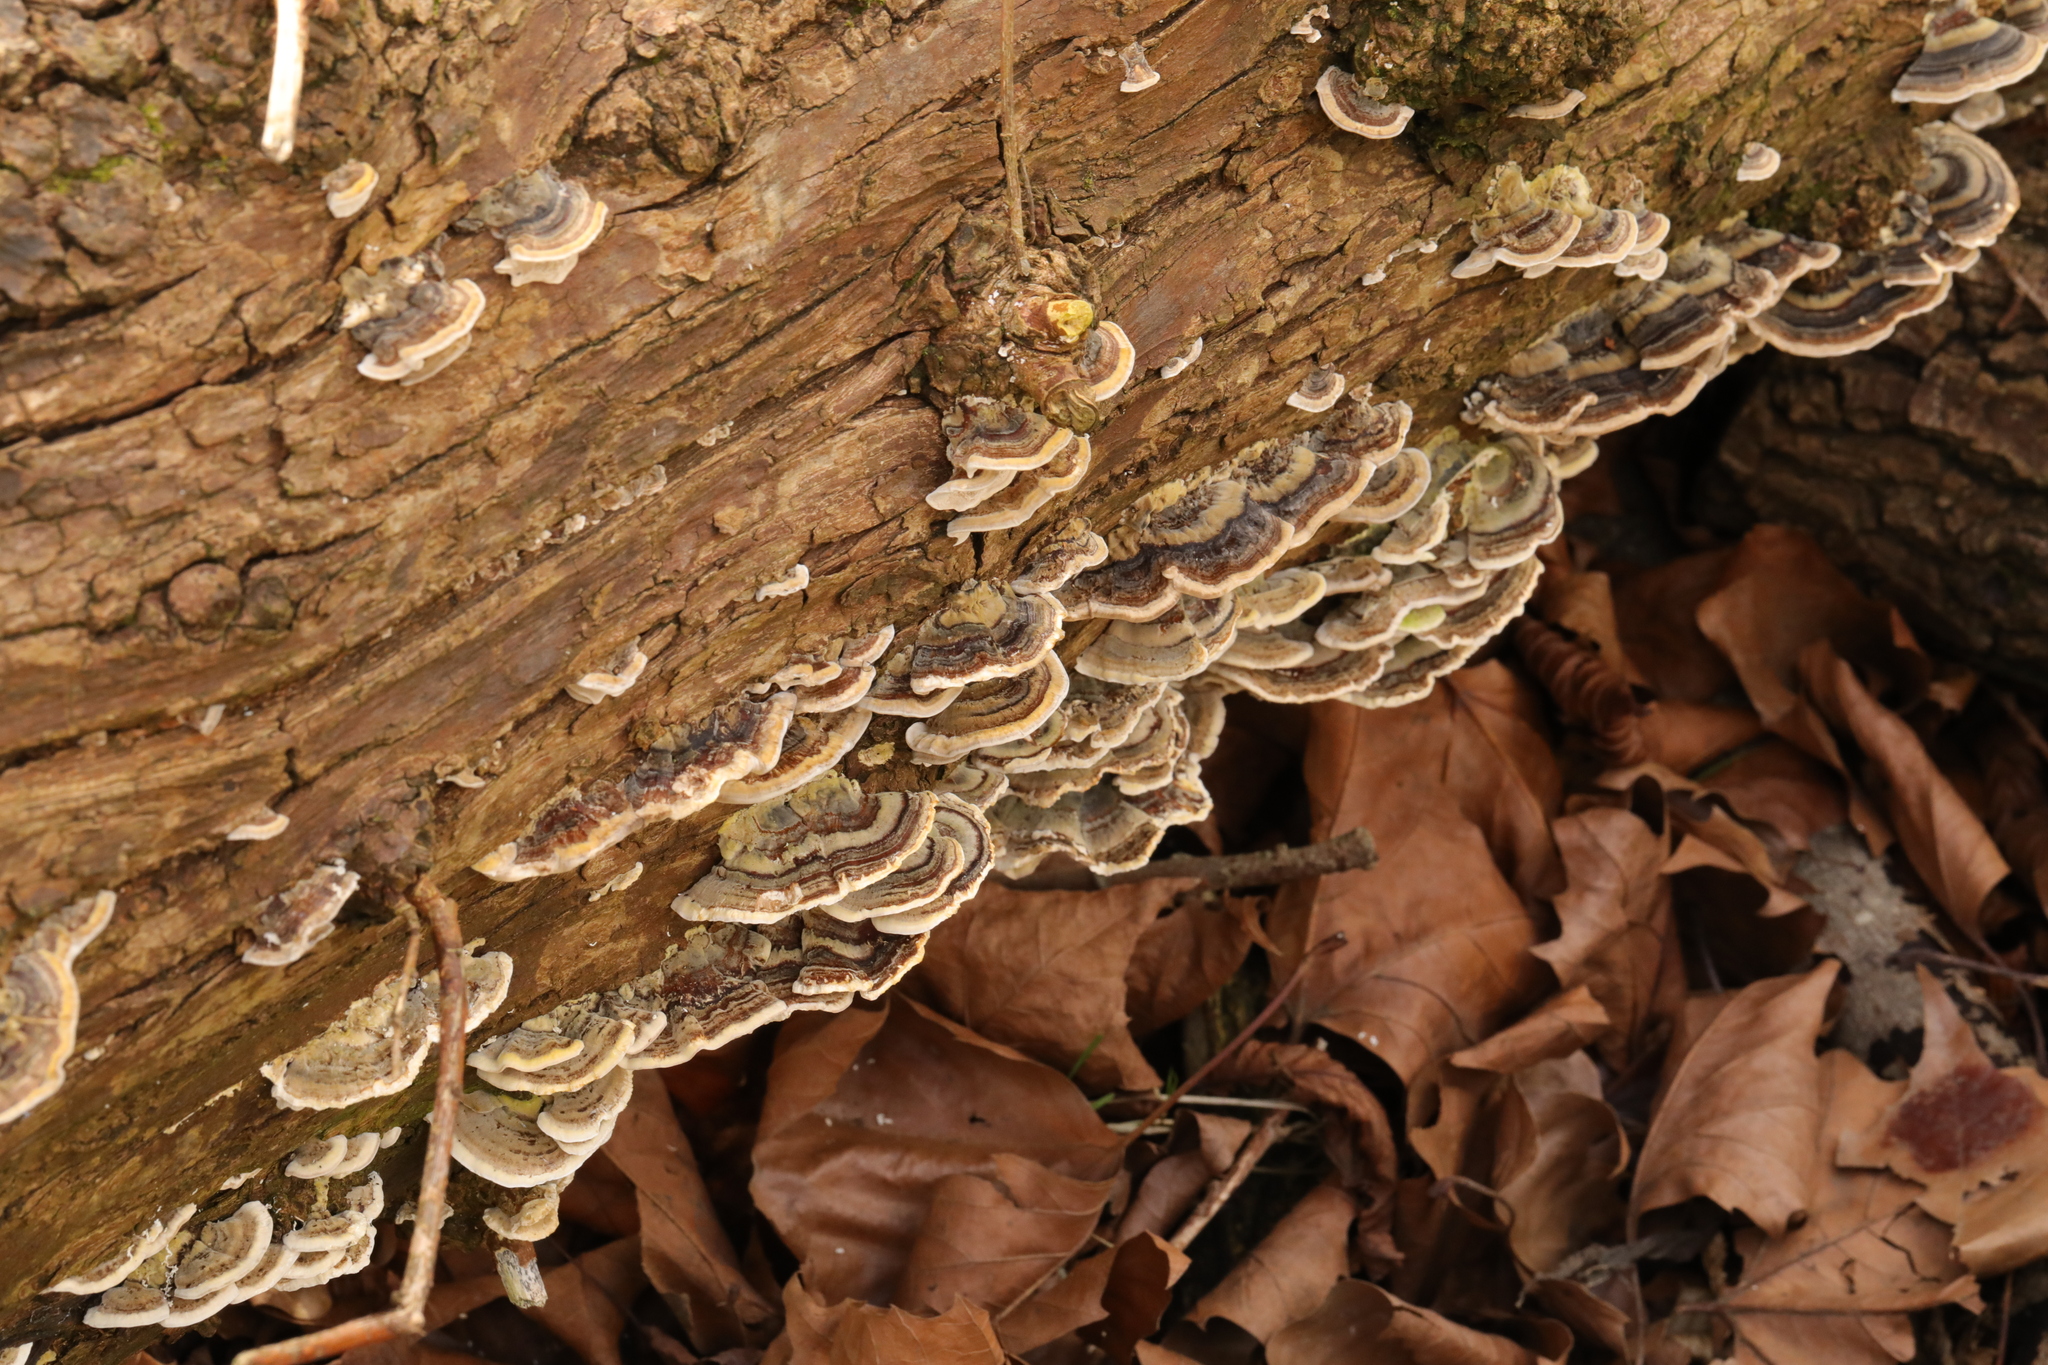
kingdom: Fungi
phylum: Basidiomycota
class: Agaricomycetes
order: Polyporales
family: Polyporaceae
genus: Trametes
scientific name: Trametes versicolor
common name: Turkeytail
